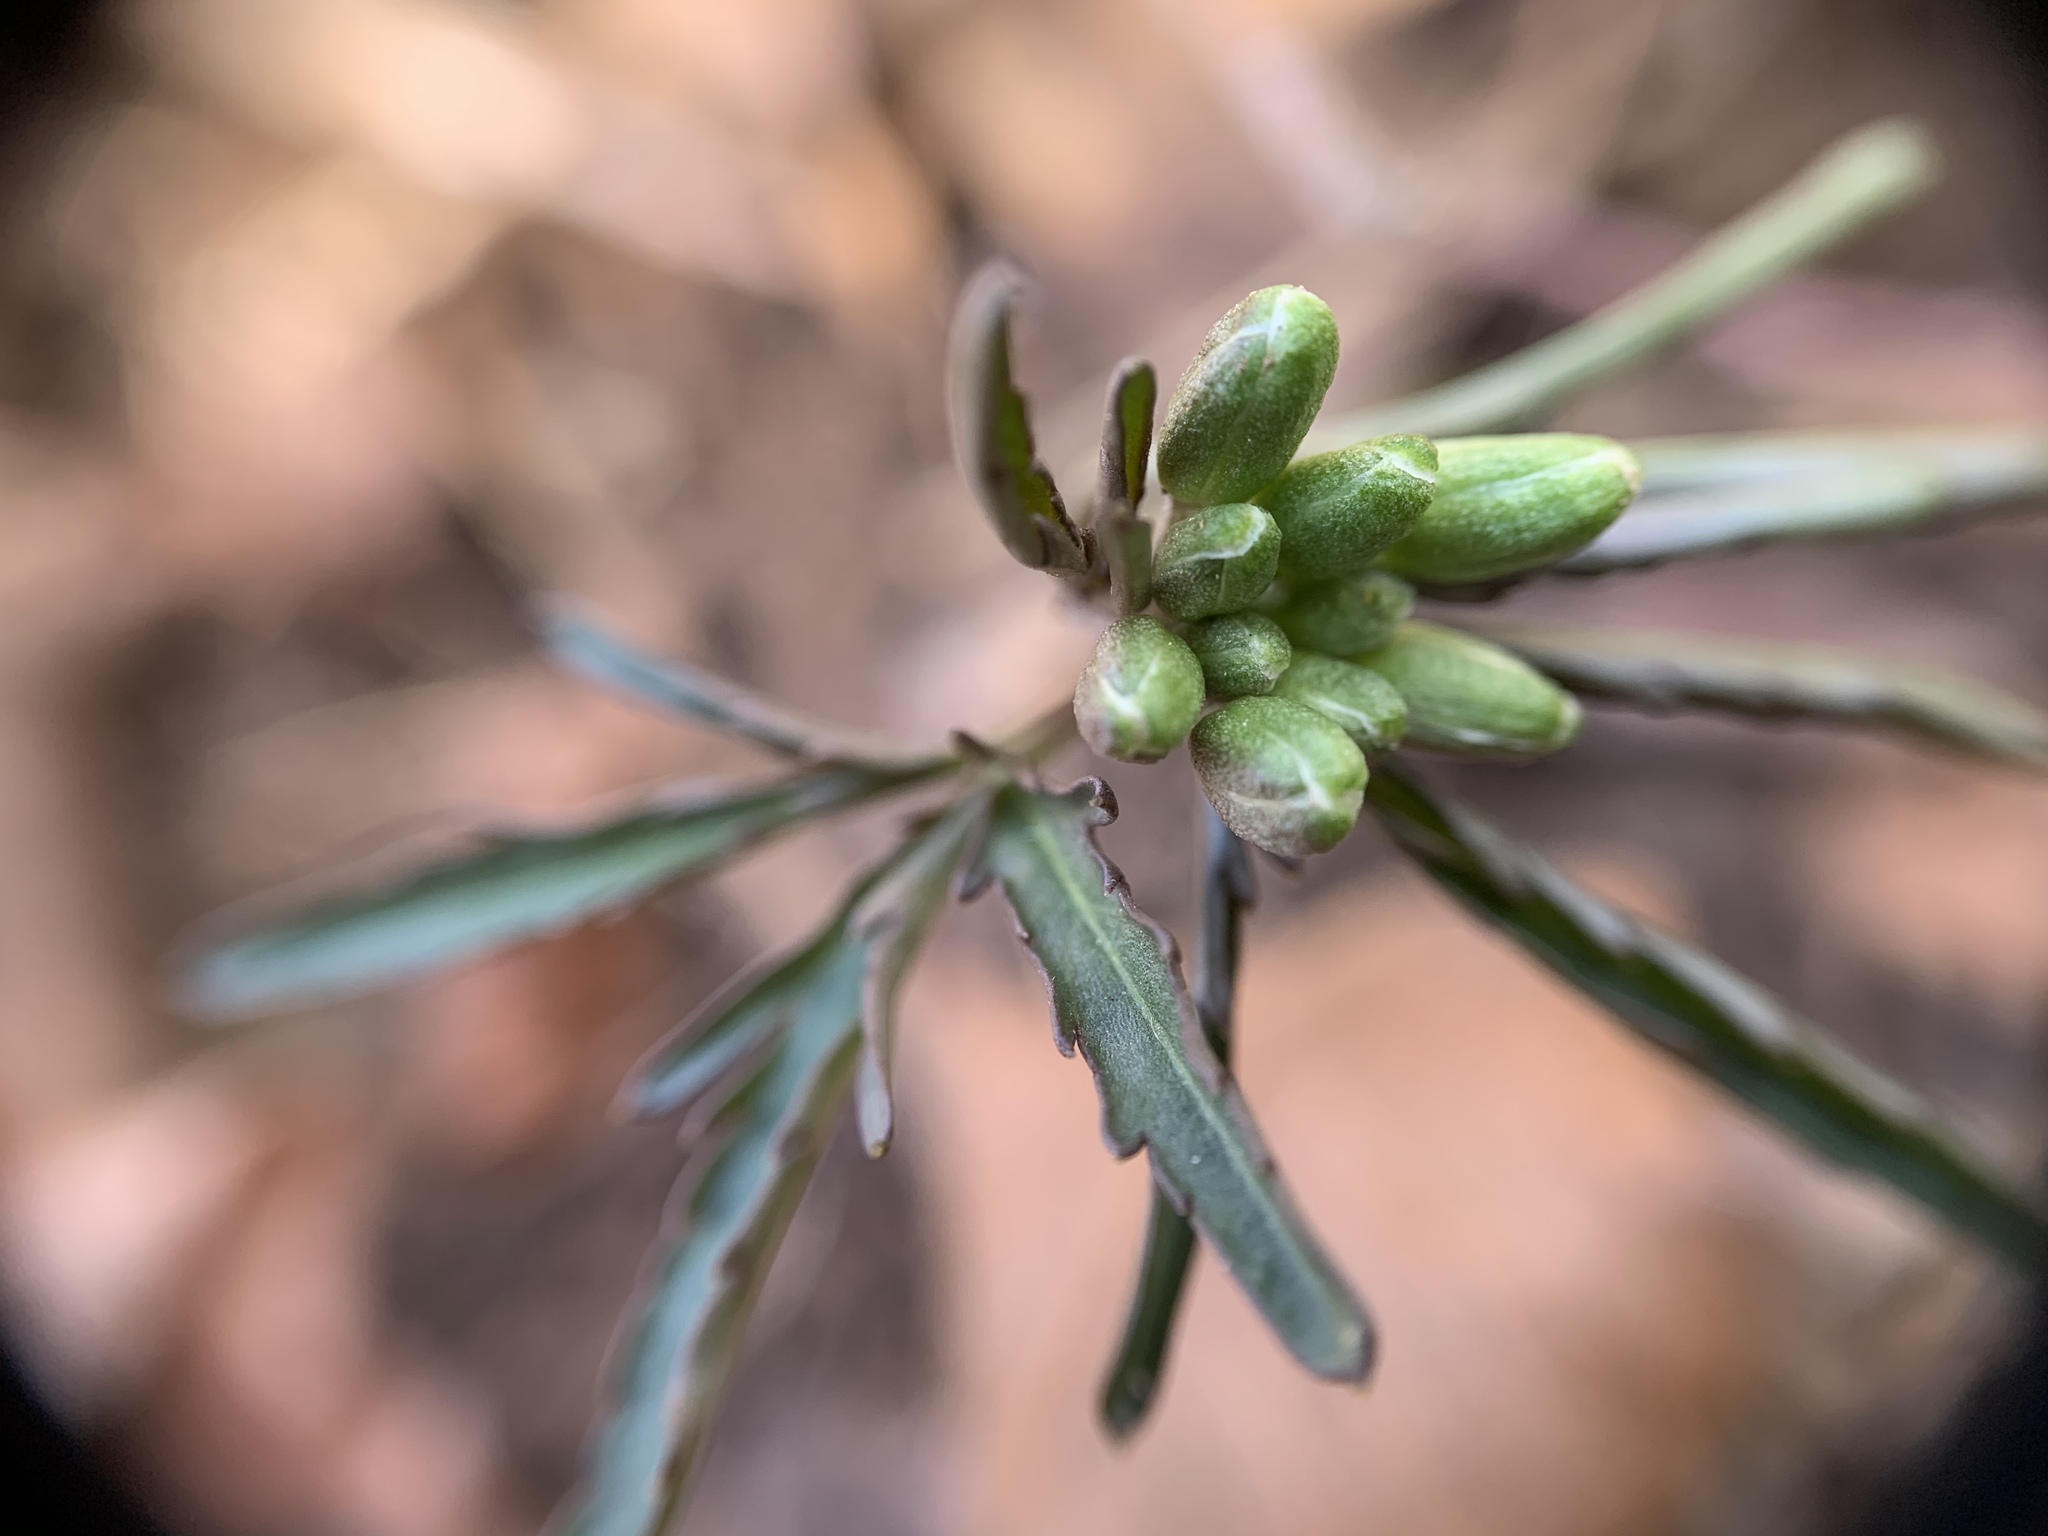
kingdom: Plantae
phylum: Tracheophyta
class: Magnoliopsida
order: Brassicales
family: Brassicaceae
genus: Cardamine
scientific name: Cardamine concatenata
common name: Cut-leaf toothcup
